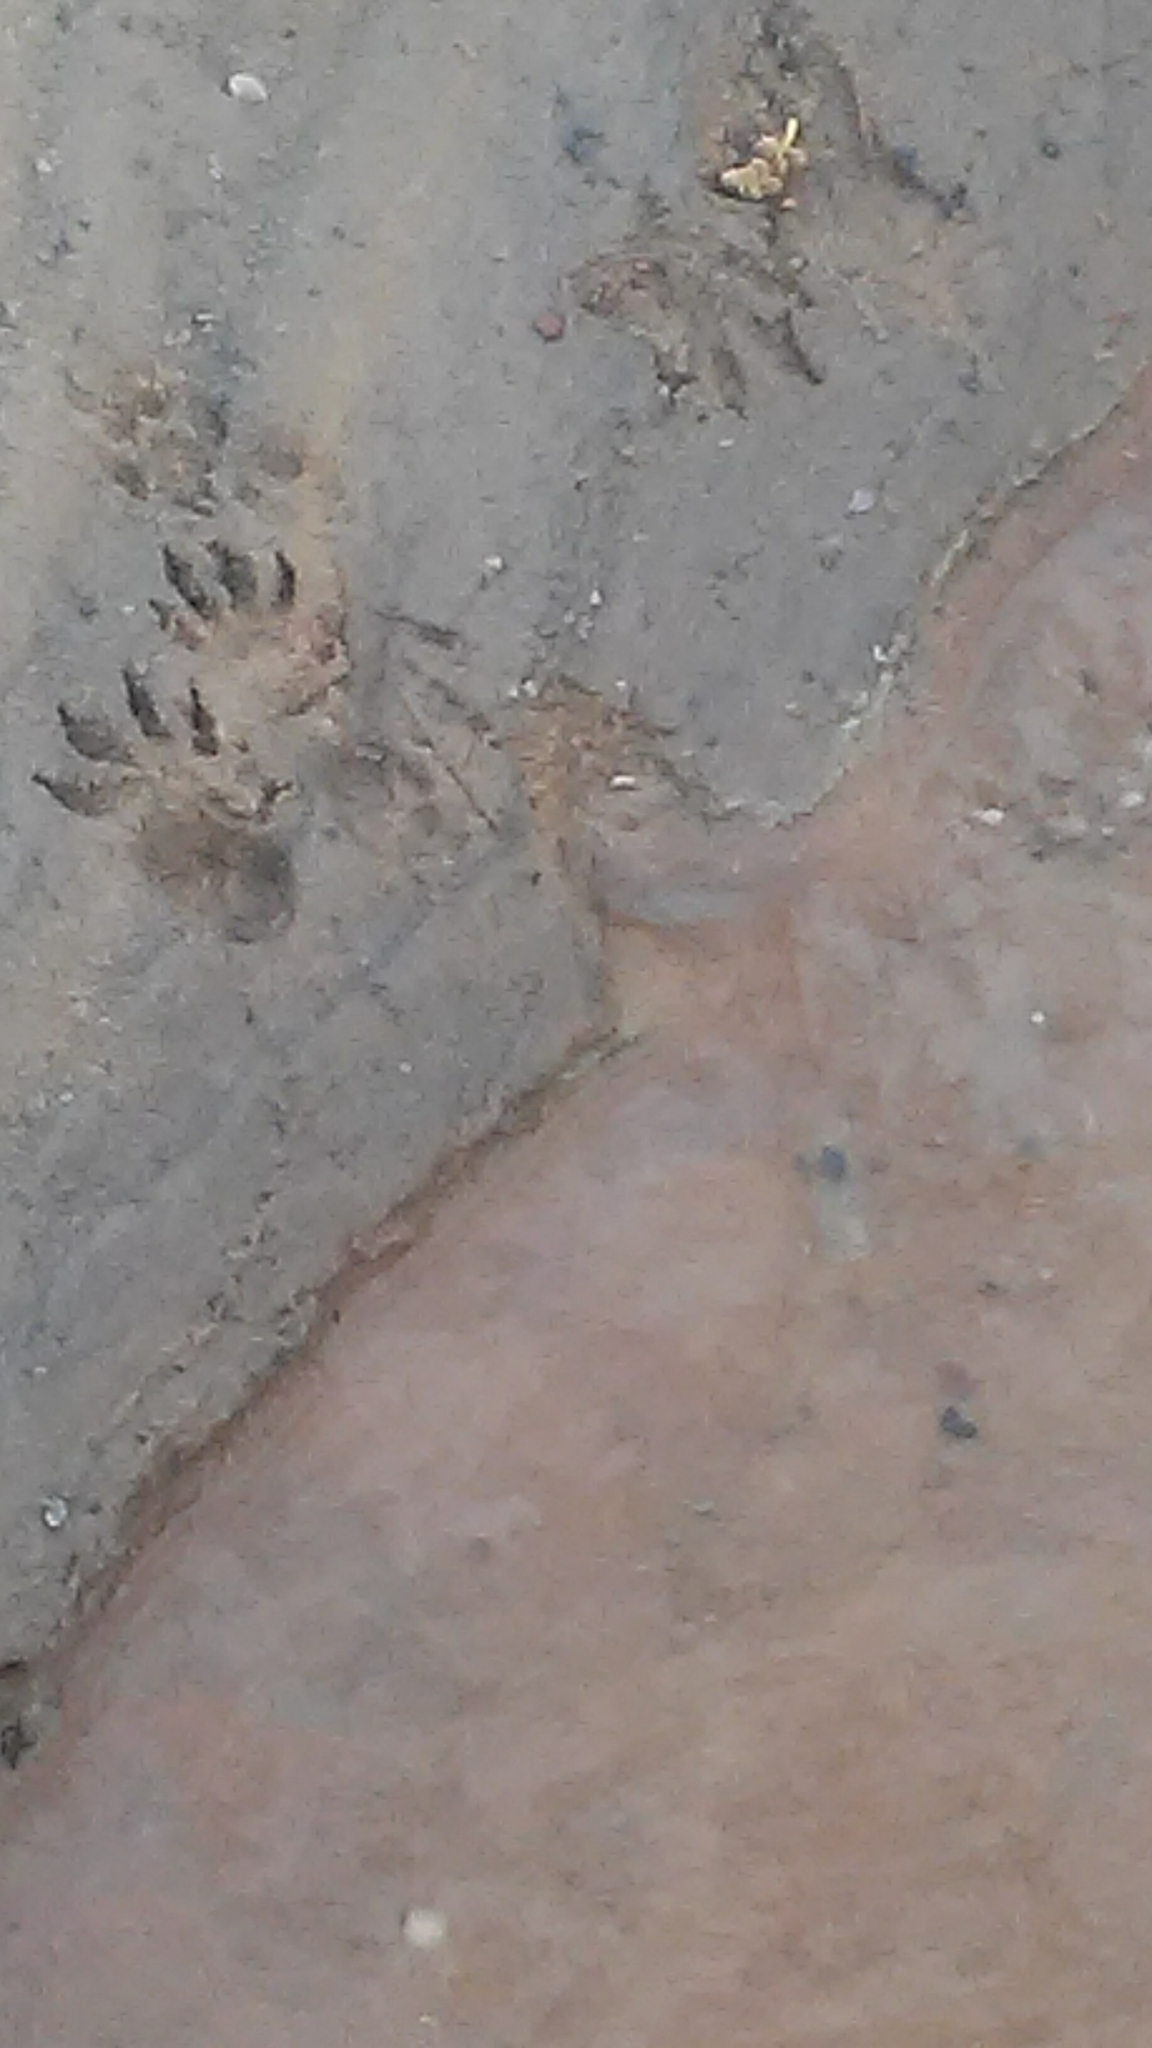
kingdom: Animalia
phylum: Chordata
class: Mammalia
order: Carnivora
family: Procyonidae
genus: Procyon
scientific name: Procyon lotor
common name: Raccoon
